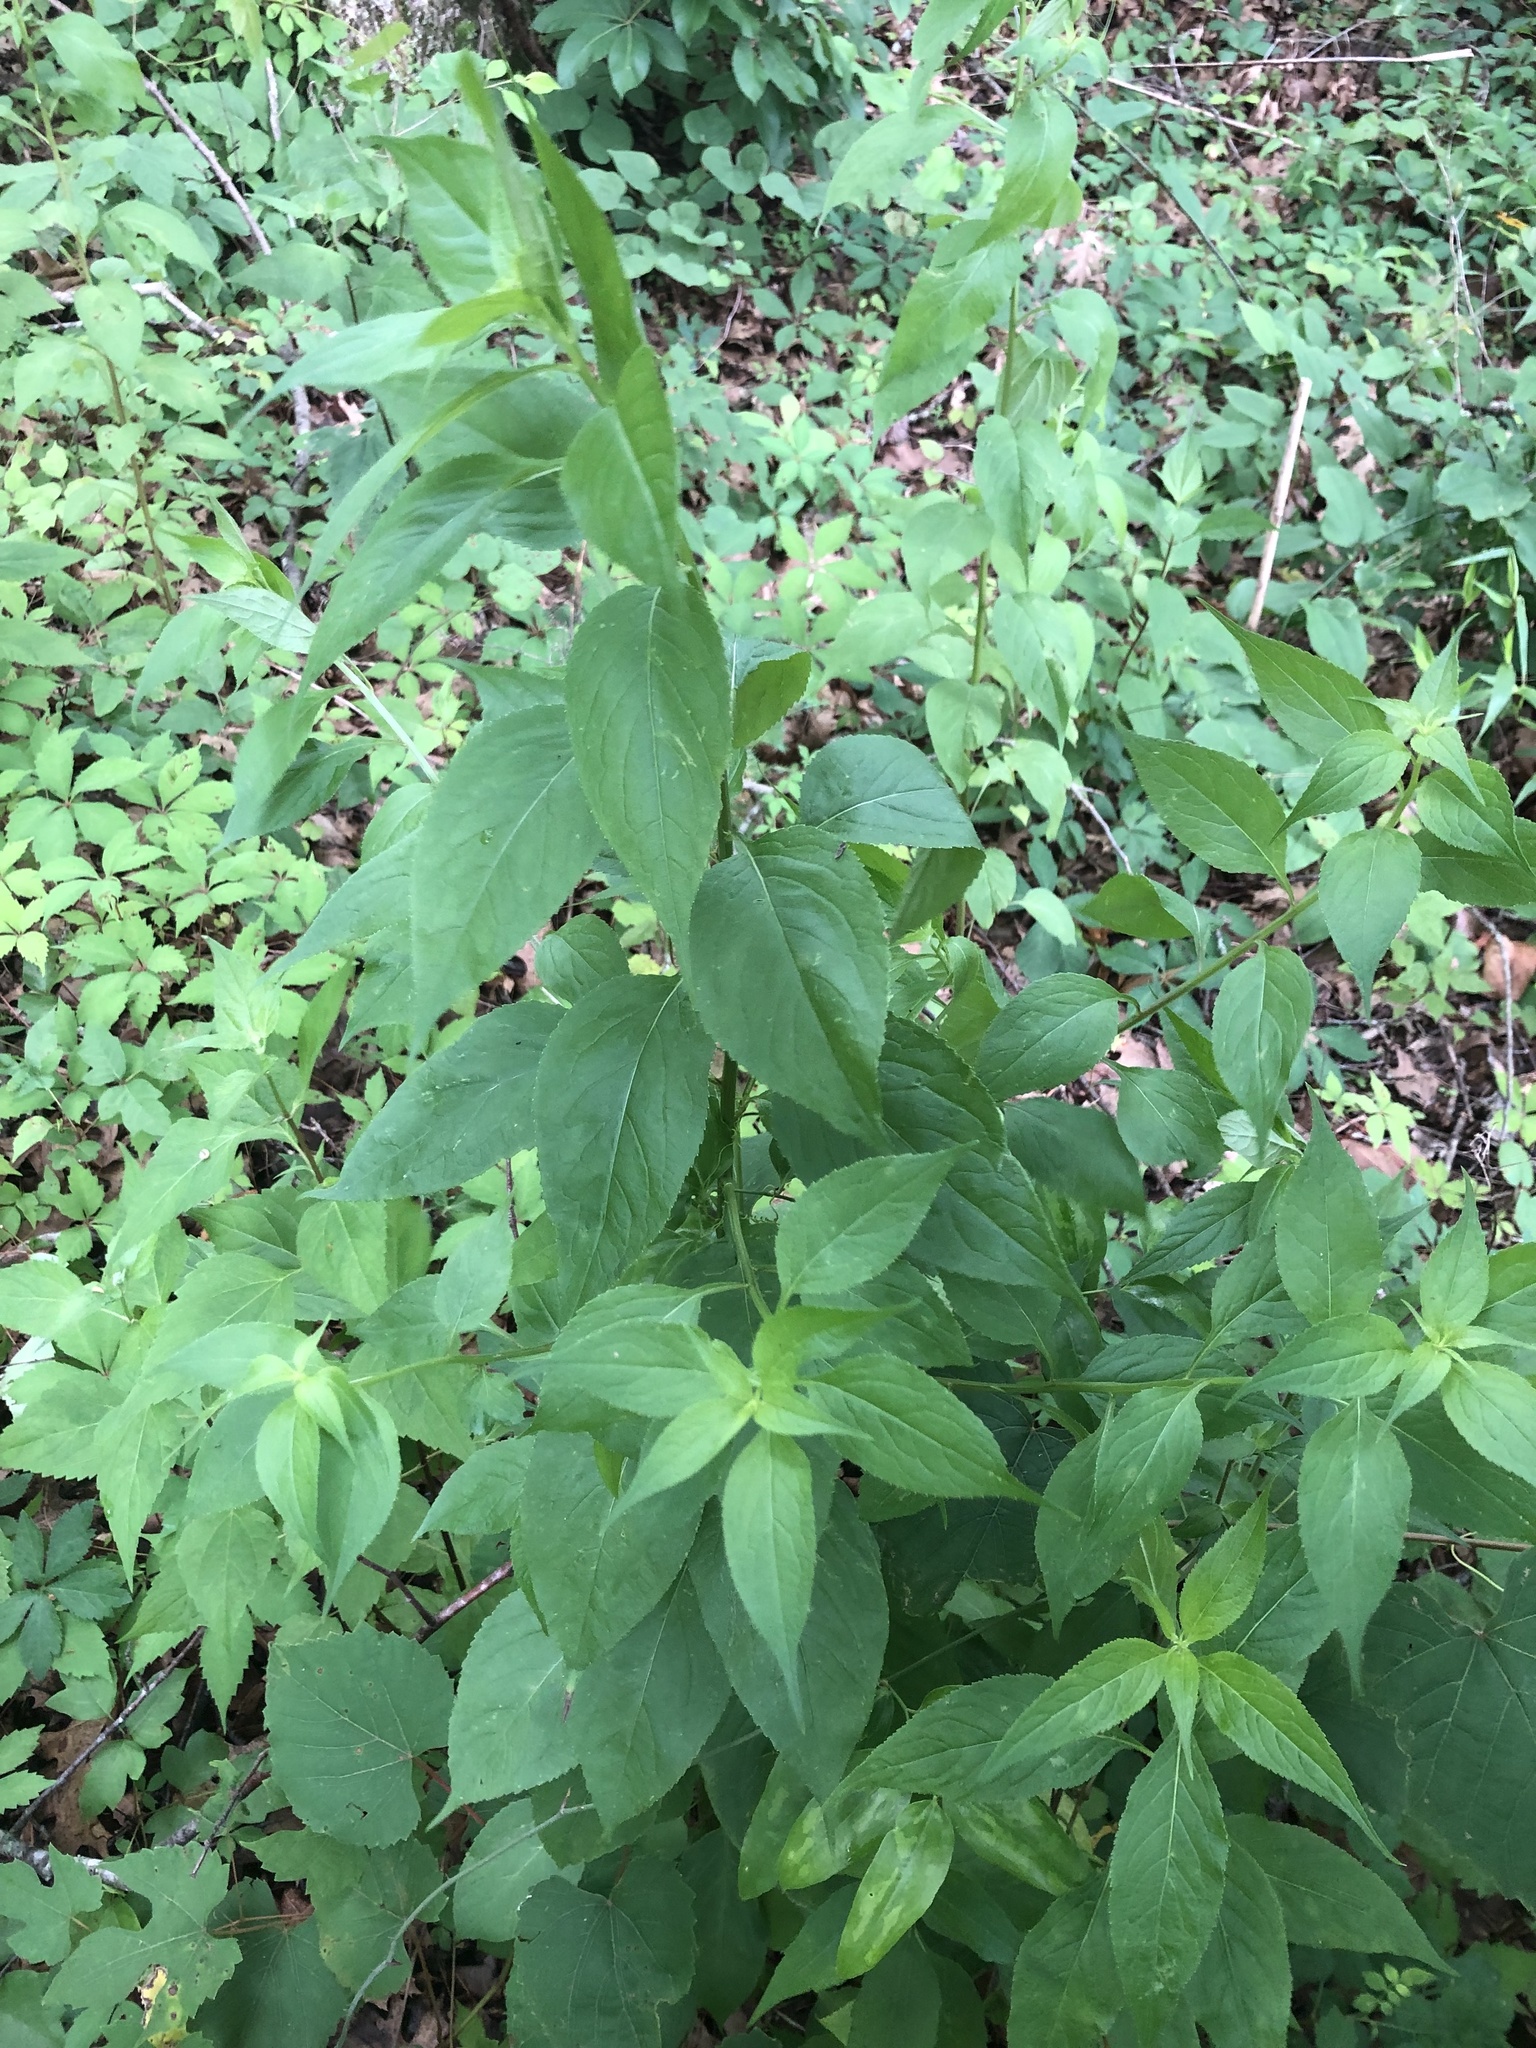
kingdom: Plantae
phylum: Tracheophyta
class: Magnoliopsida
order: Asterales
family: Campanulaceae
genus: Campanulastrum
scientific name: Campanulastrum americanum
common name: American bellflower
